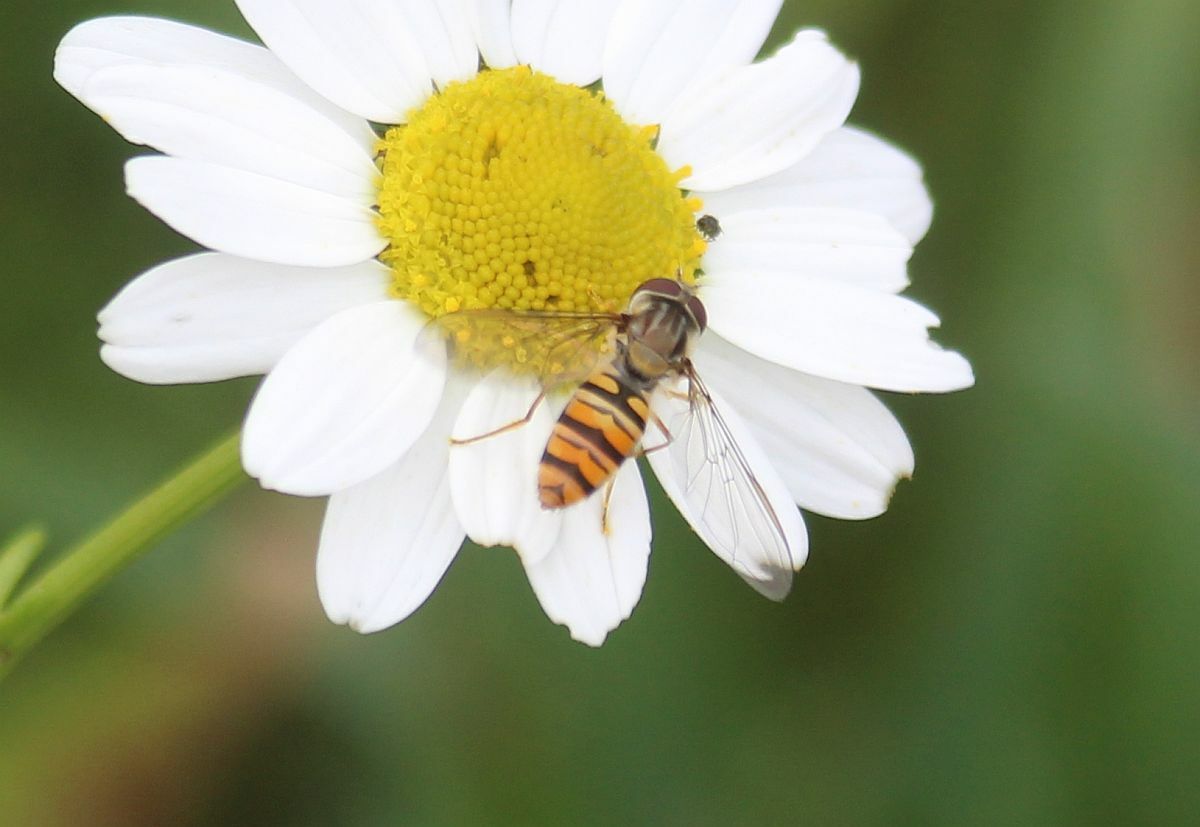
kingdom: Animalia
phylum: Arthropoda
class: Insecta
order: Diptera
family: Syrphidae
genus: Episyrphus
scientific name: Episyrphus balteatus
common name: Marmalade hoverfly
